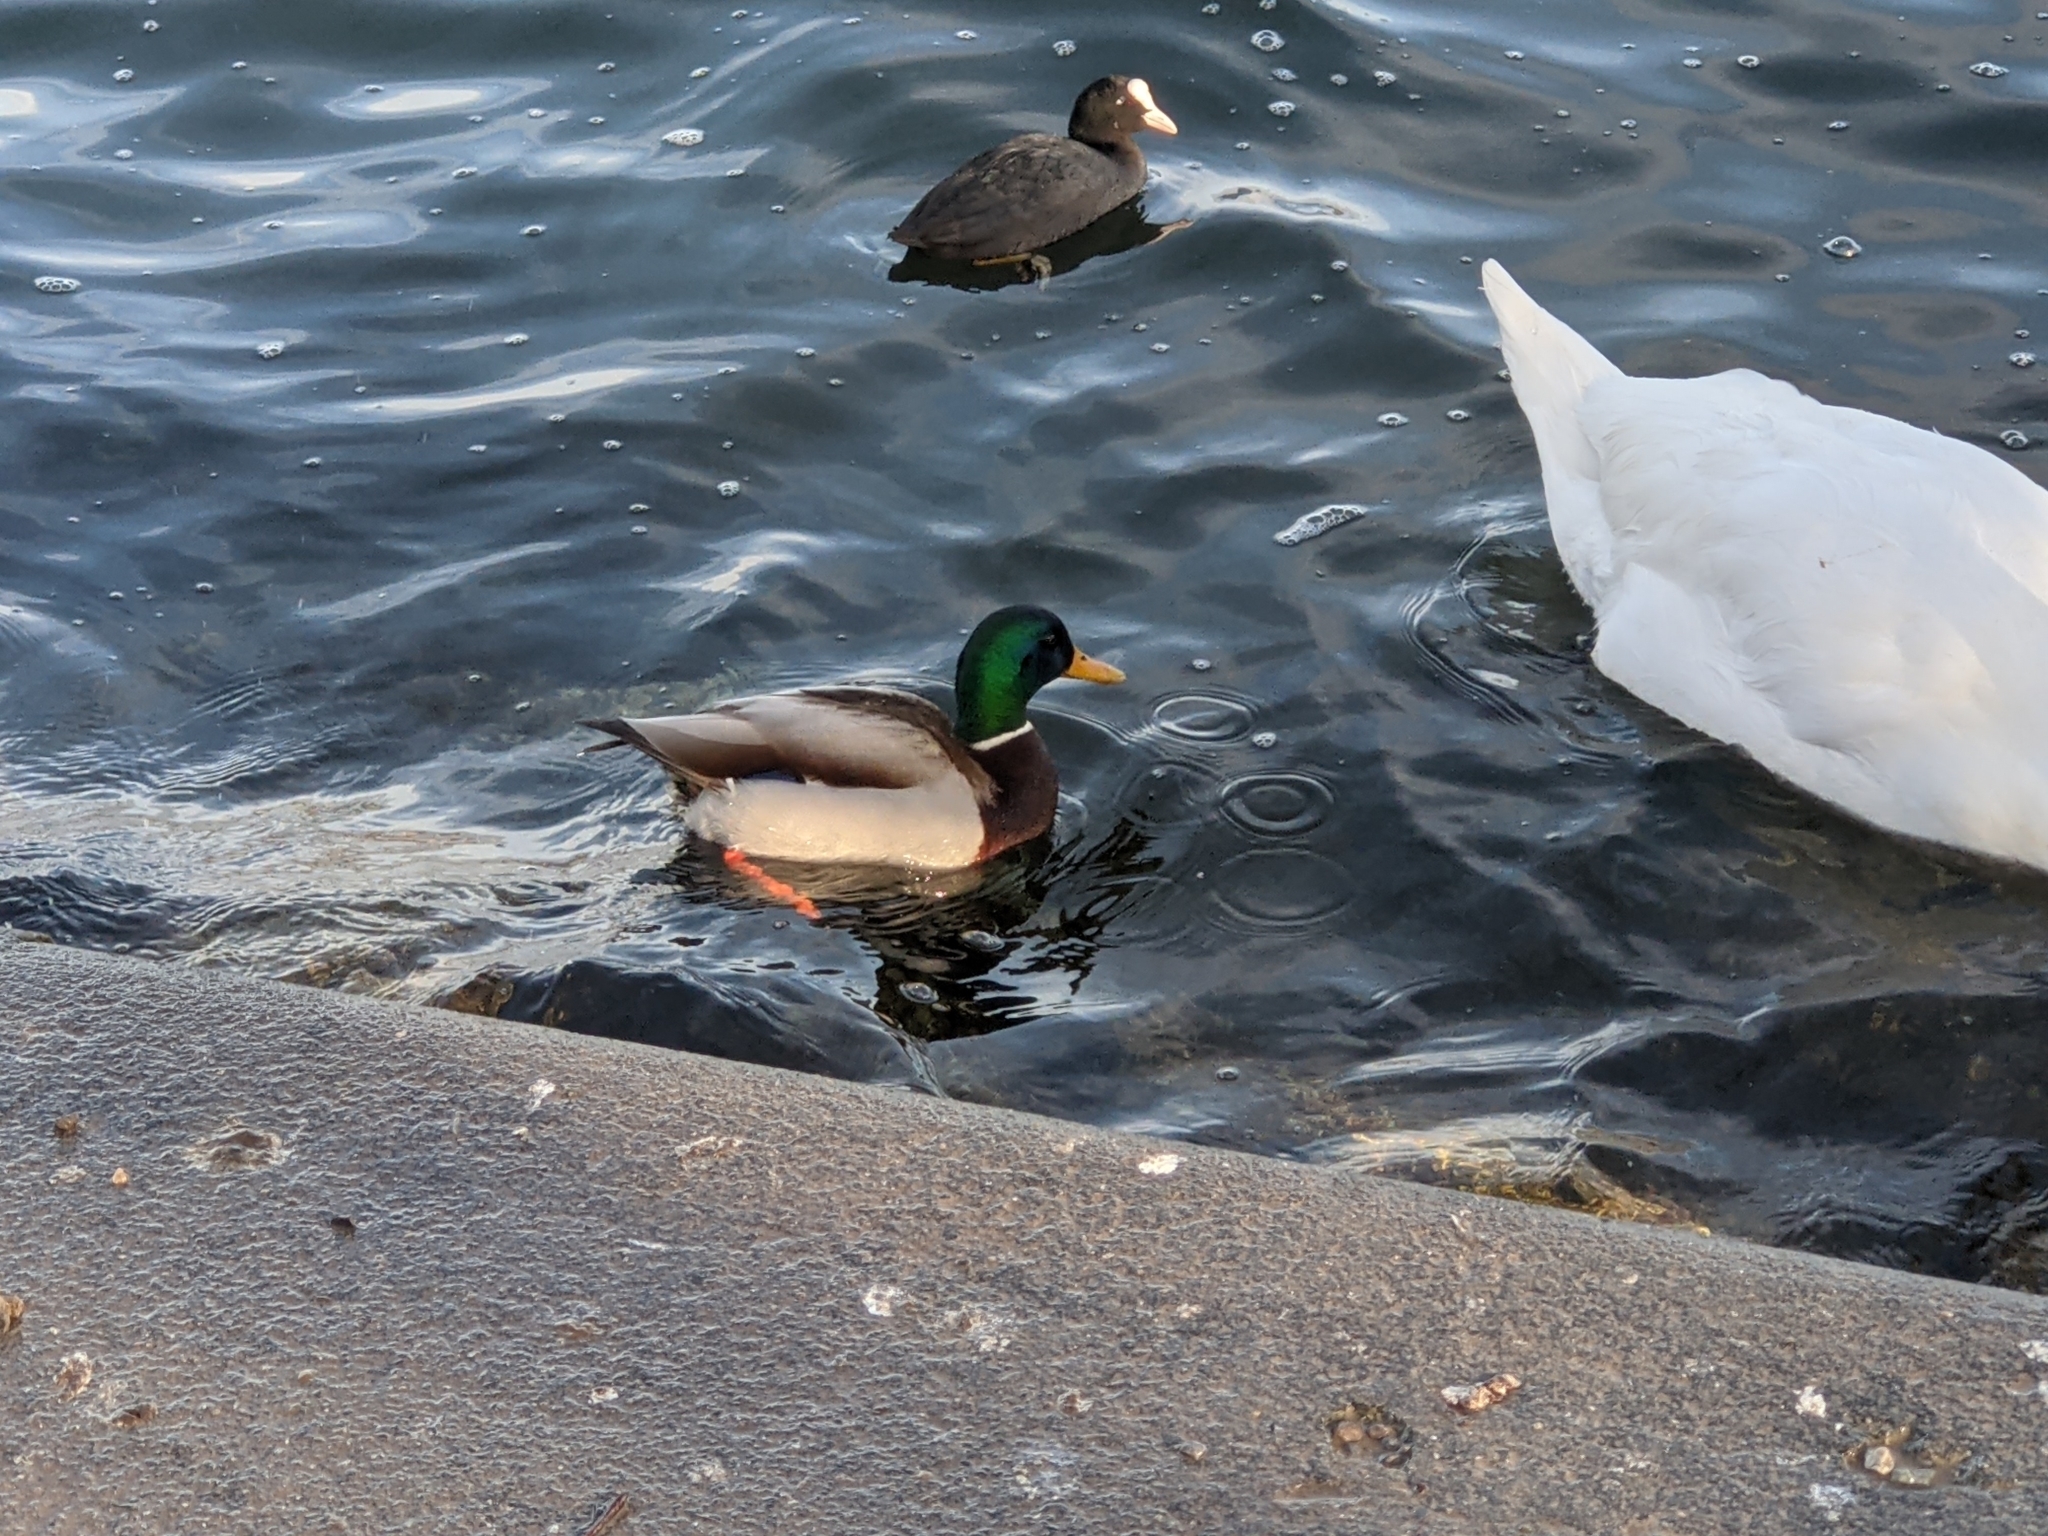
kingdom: Animalia
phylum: Chordata
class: Aves
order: Anseriformes
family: Anatidae
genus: Anas
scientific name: Anas platyrhynchos
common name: Mallard
